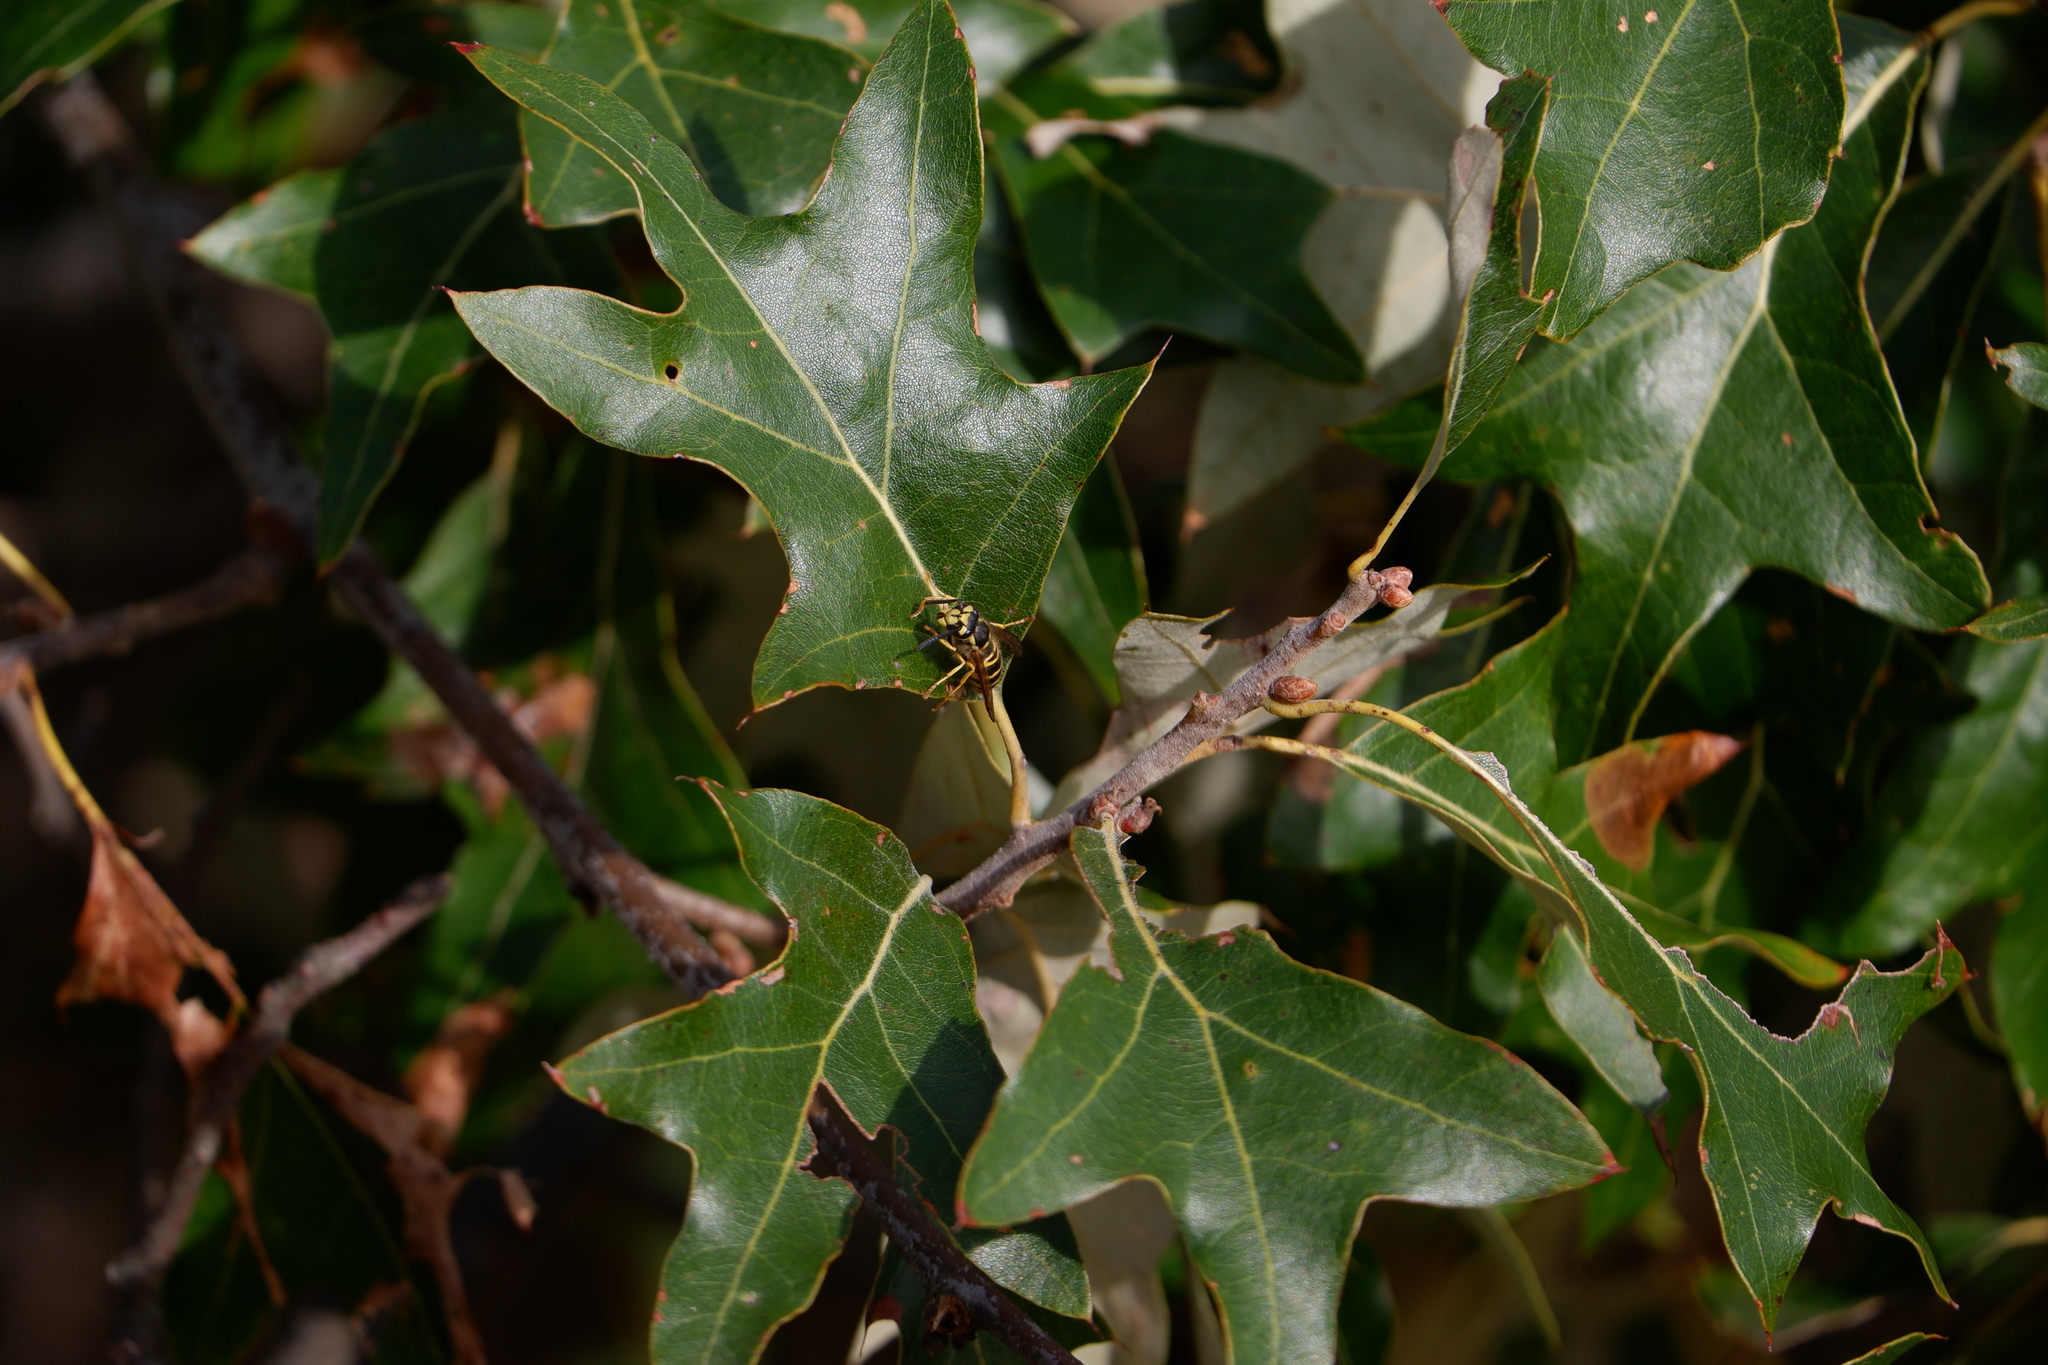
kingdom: Animalia
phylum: Arthropoda
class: Insecta
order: Hymenoptera
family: Vespidae
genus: Vespula
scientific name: Vespula maculifrons
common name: Eastern yellowjacket
